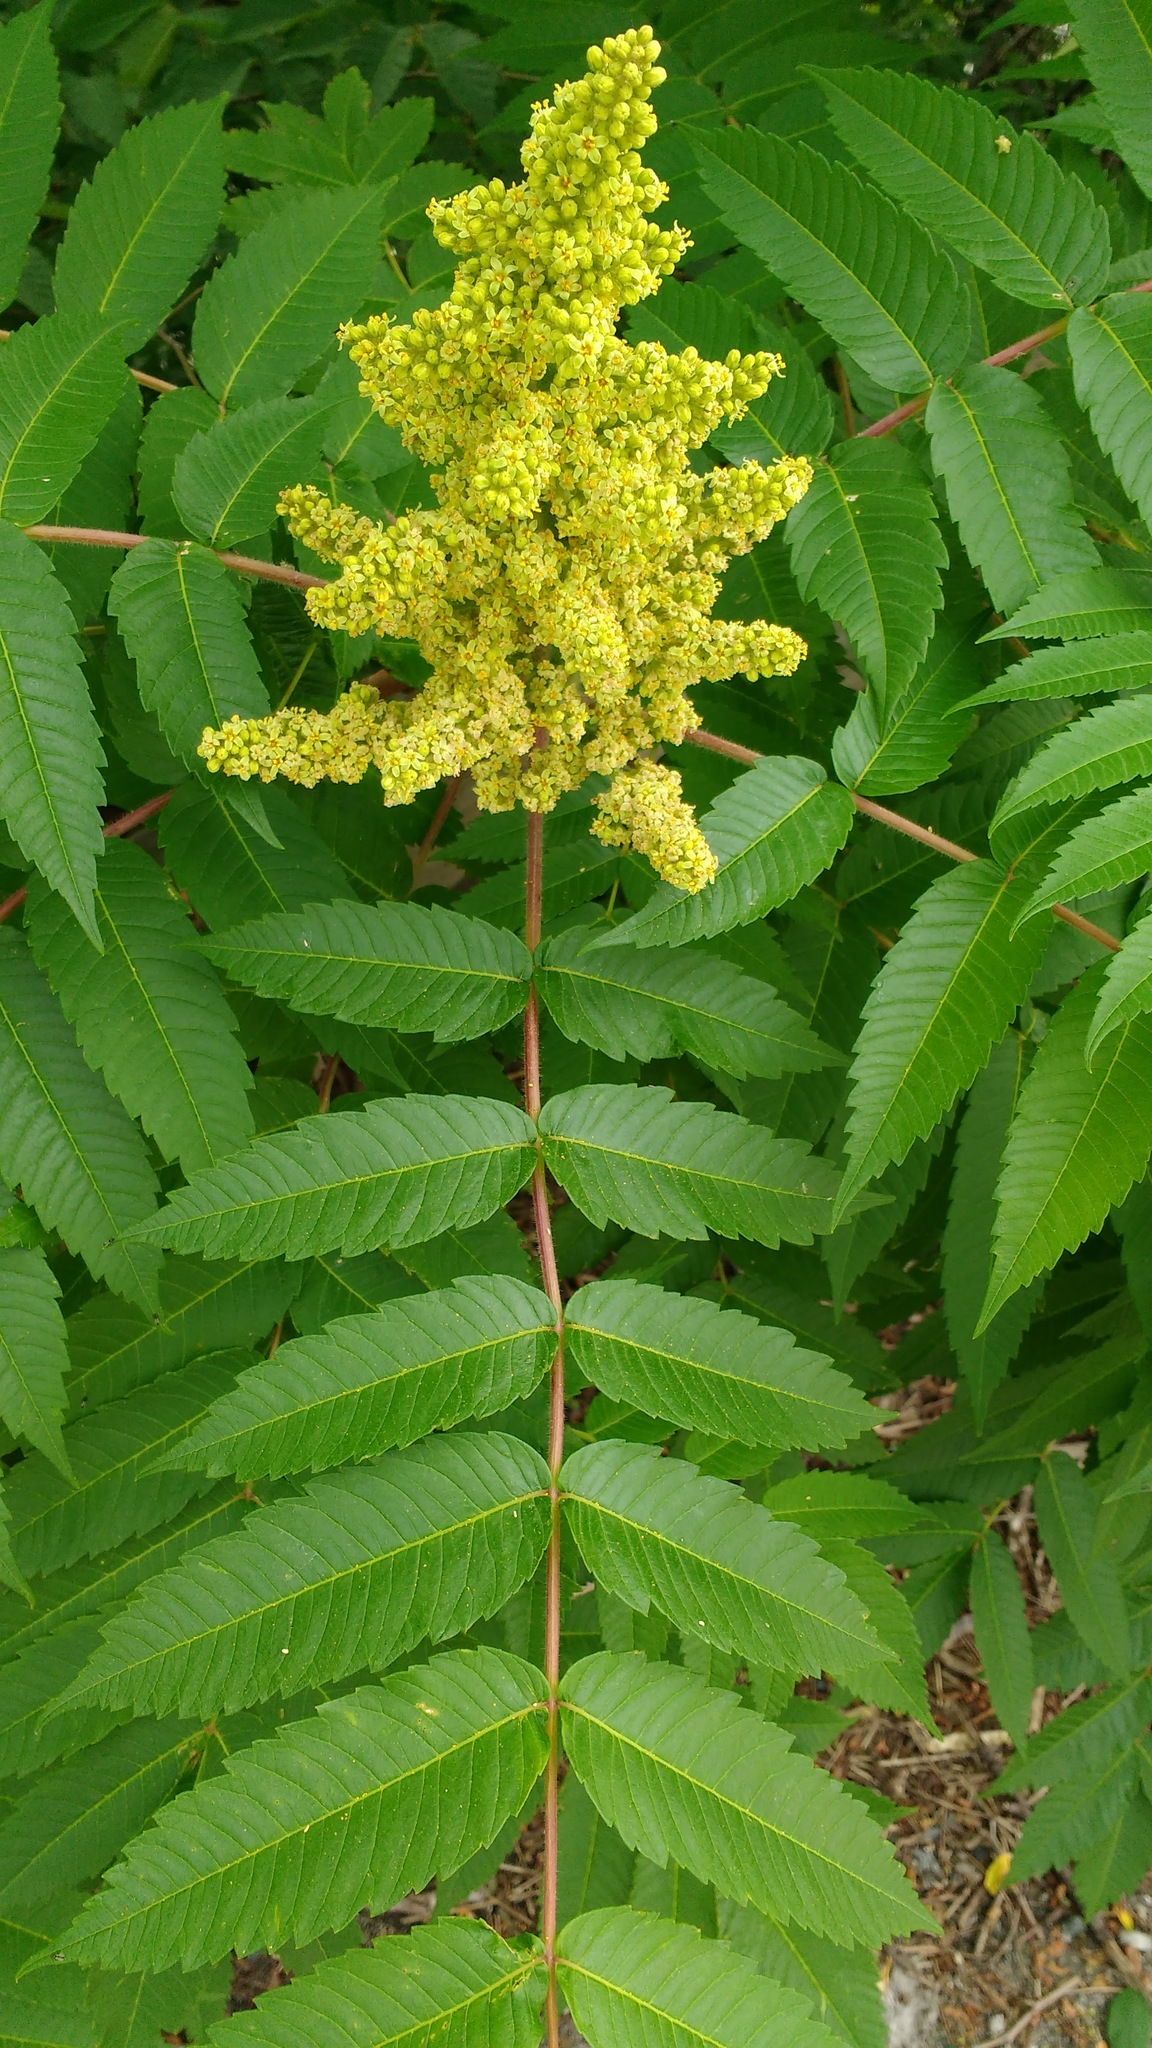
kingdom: Plantae
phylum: Tracheophyta
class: Magnoliopsida
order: Sapindales
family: Anacardiaceae
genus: Rhus
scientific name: Rhus typhina
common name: Staghorn sumac
